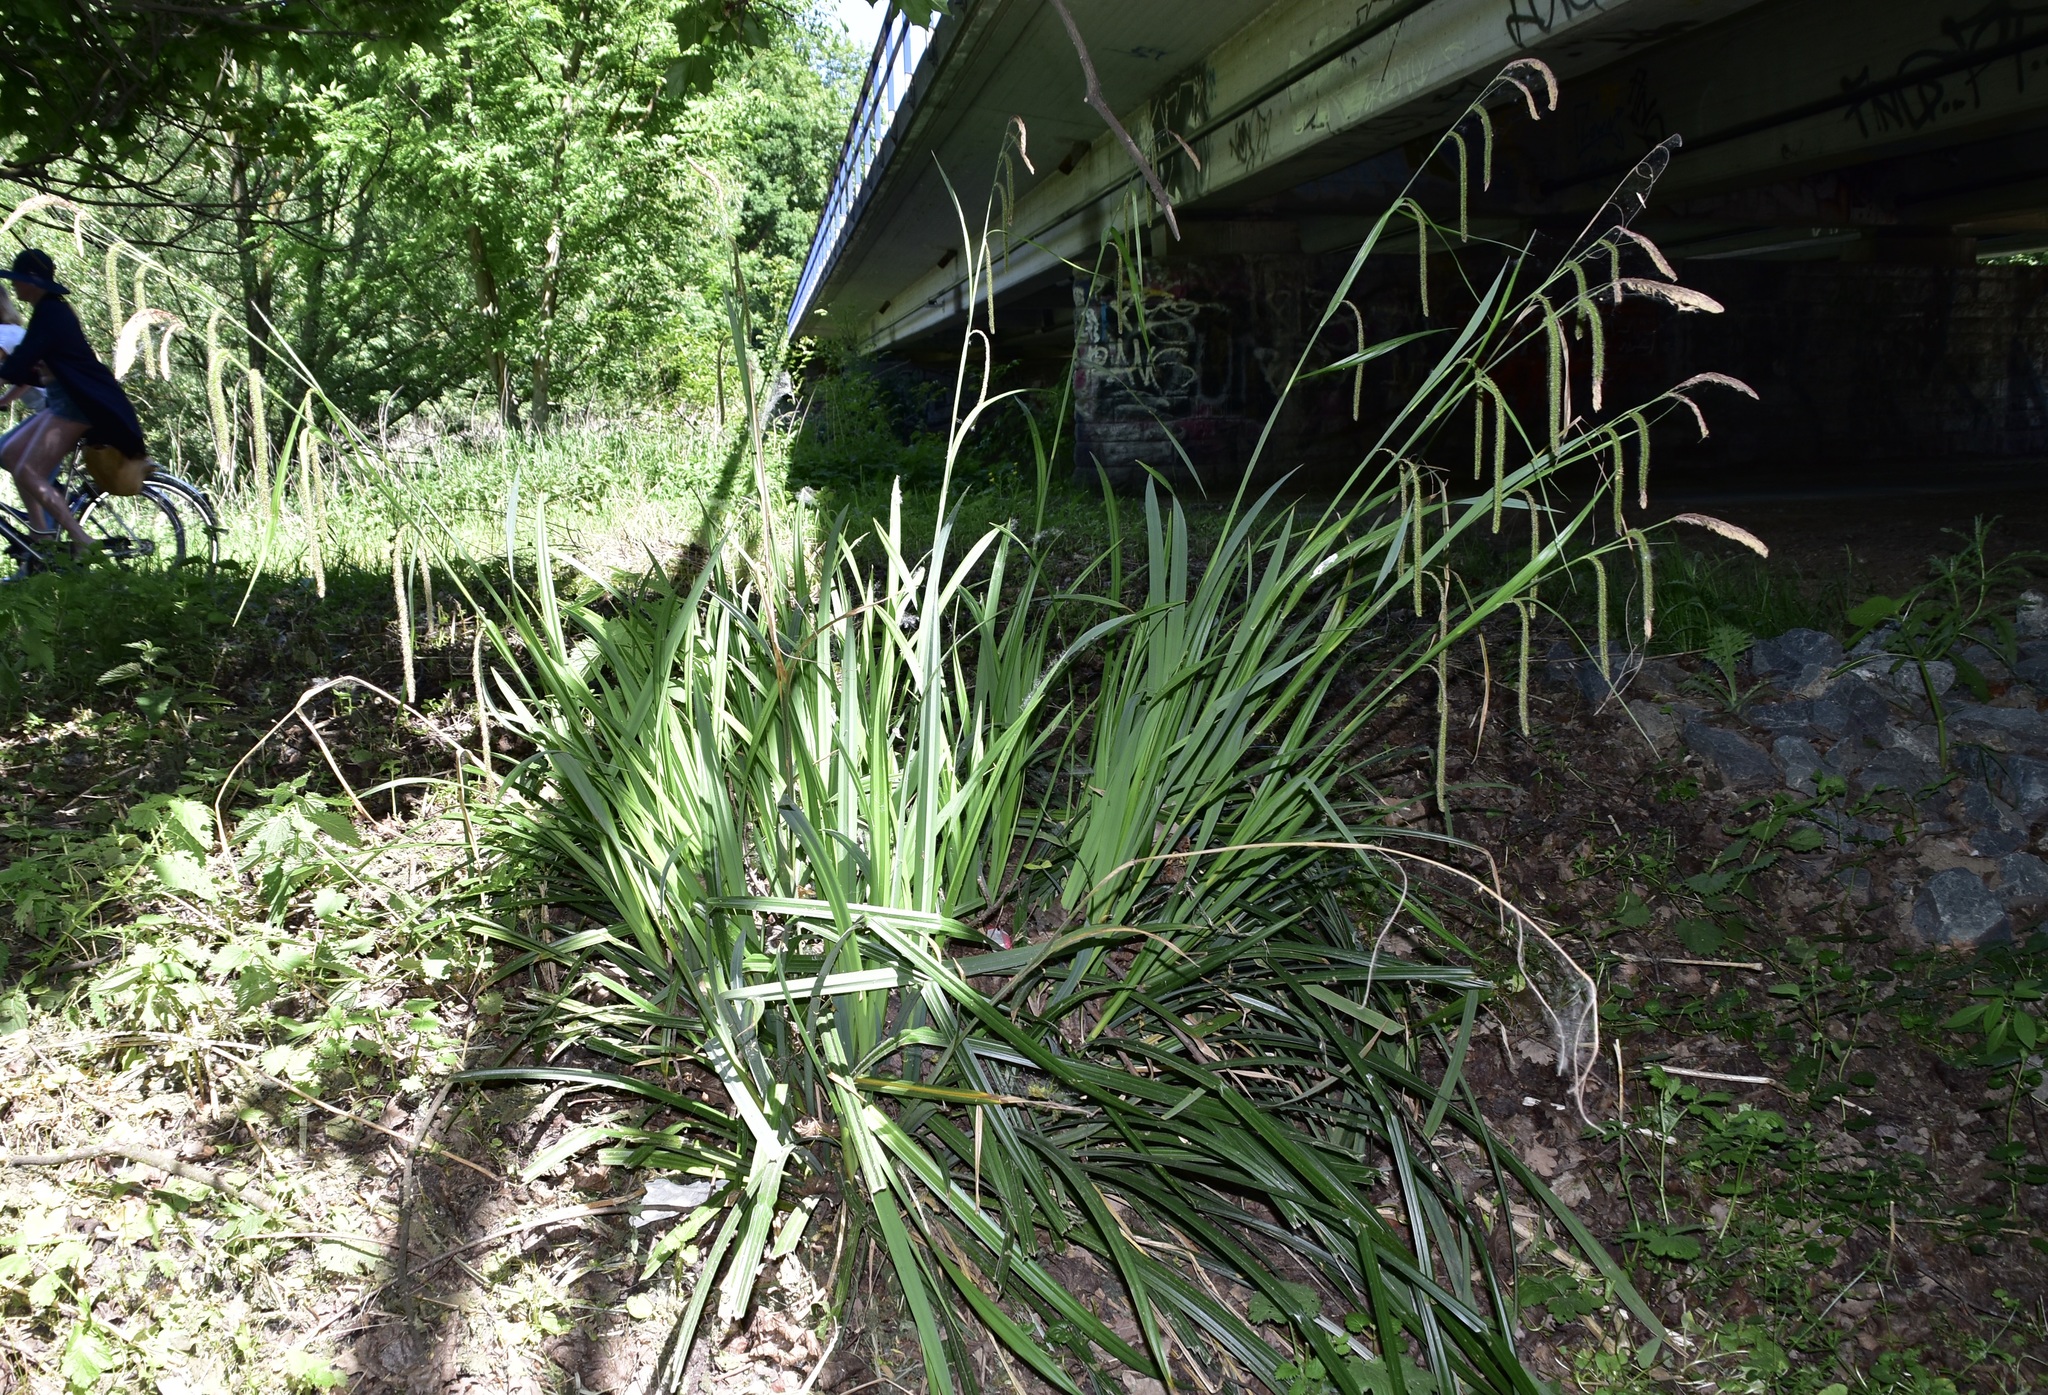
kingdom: Plantae
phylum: Tracheophyta
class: Liliopsida
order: Poales
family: Cyperaceae
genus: Carex
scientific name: Carex pendula
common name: Pendulous sedge
